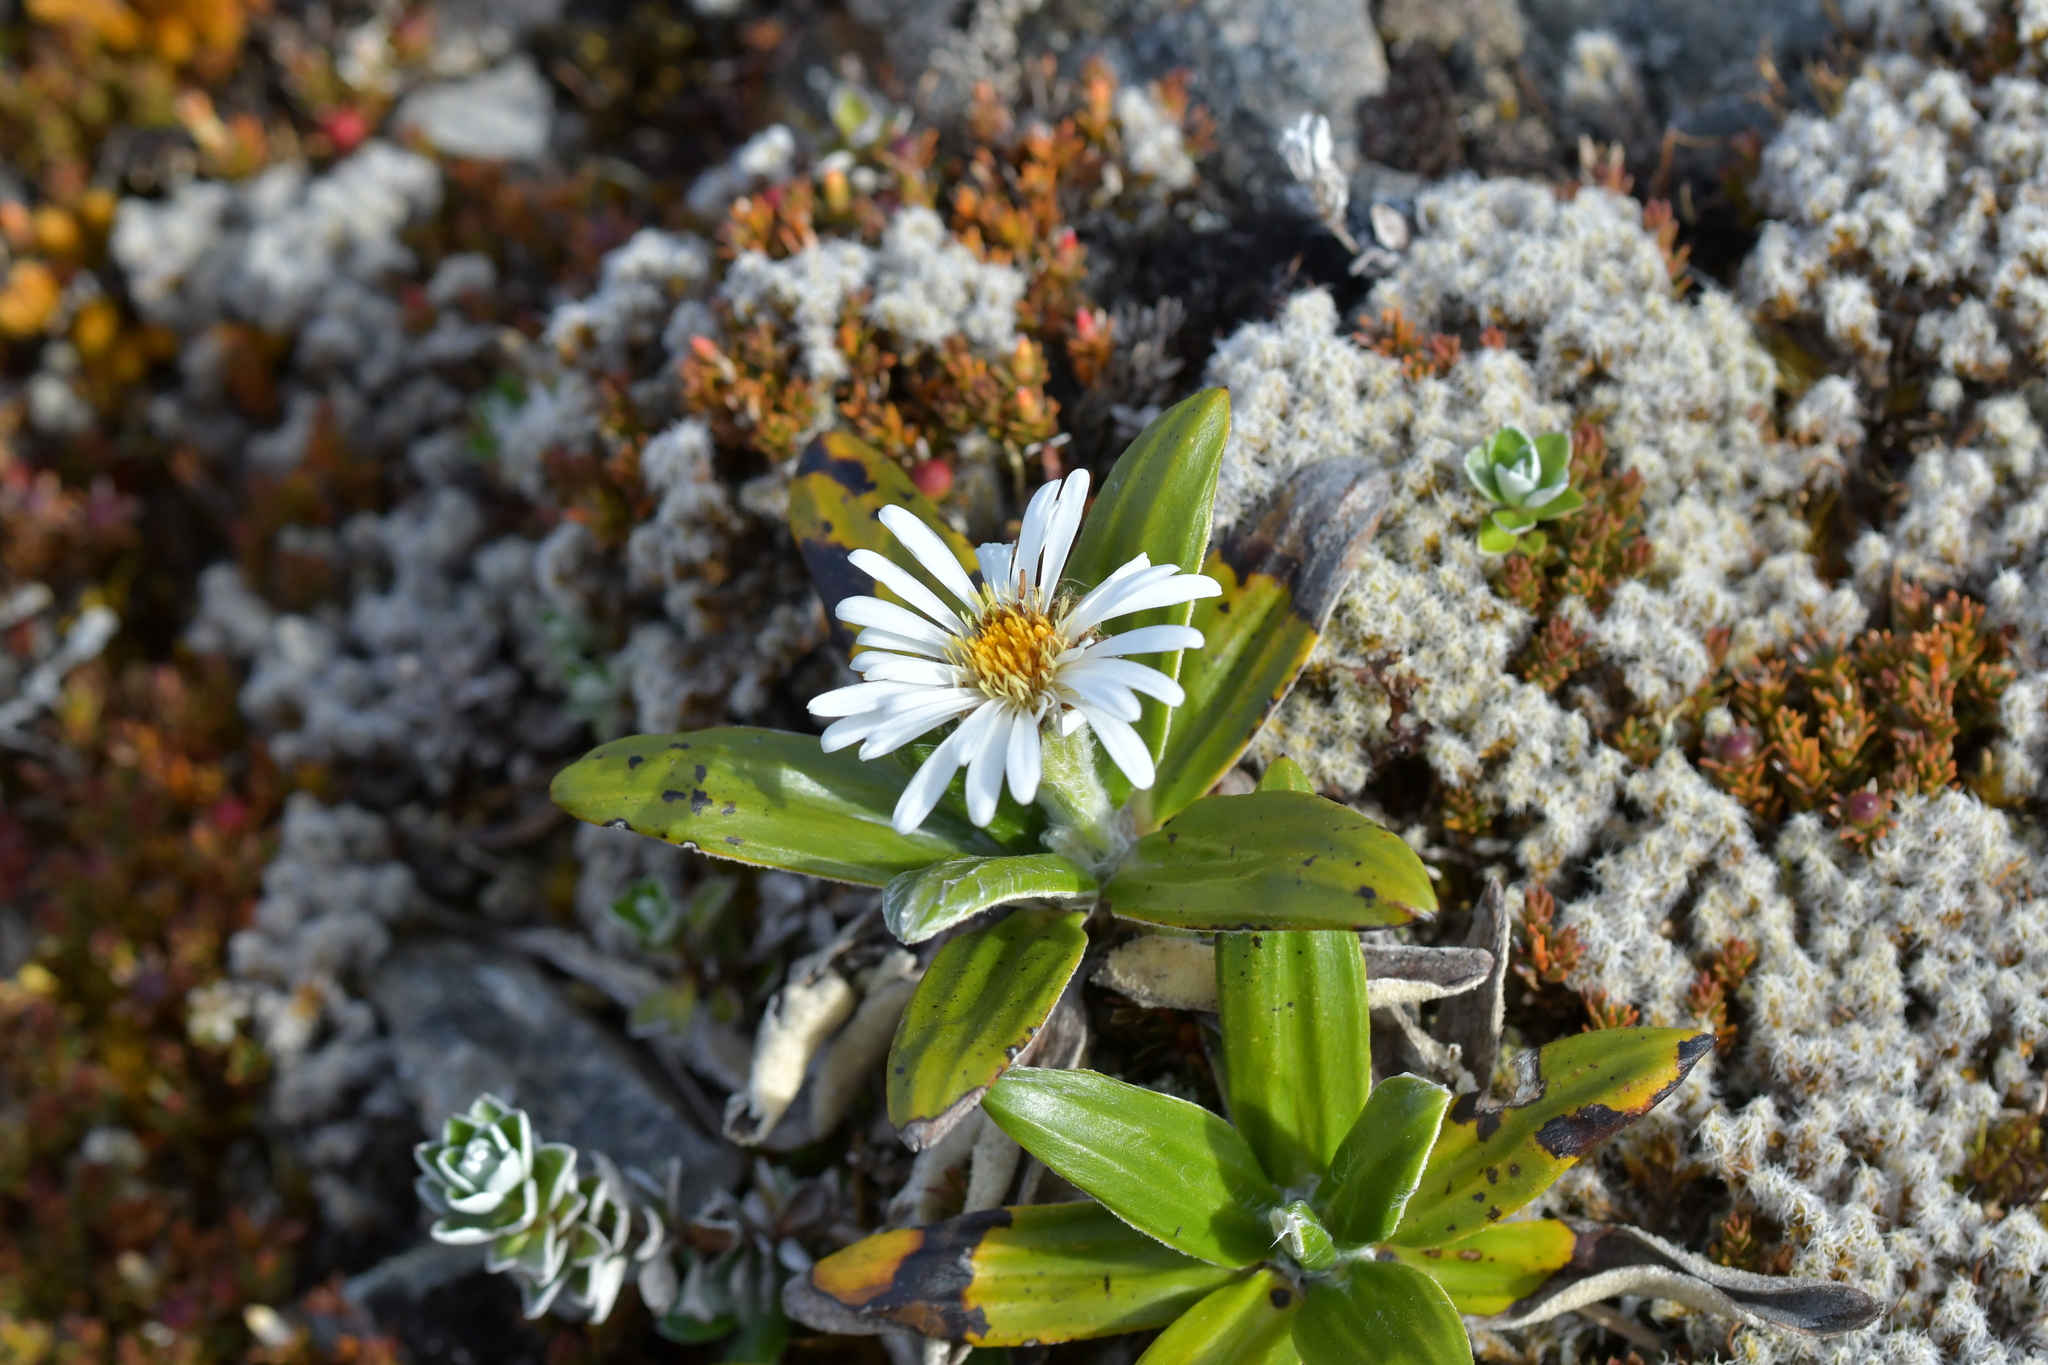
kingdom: Plantae
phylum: Tracheophyta
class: Magnoliopsida
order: Asterales
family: Asteraceae
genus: Celmisia
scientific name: Celmisia spectabilis
